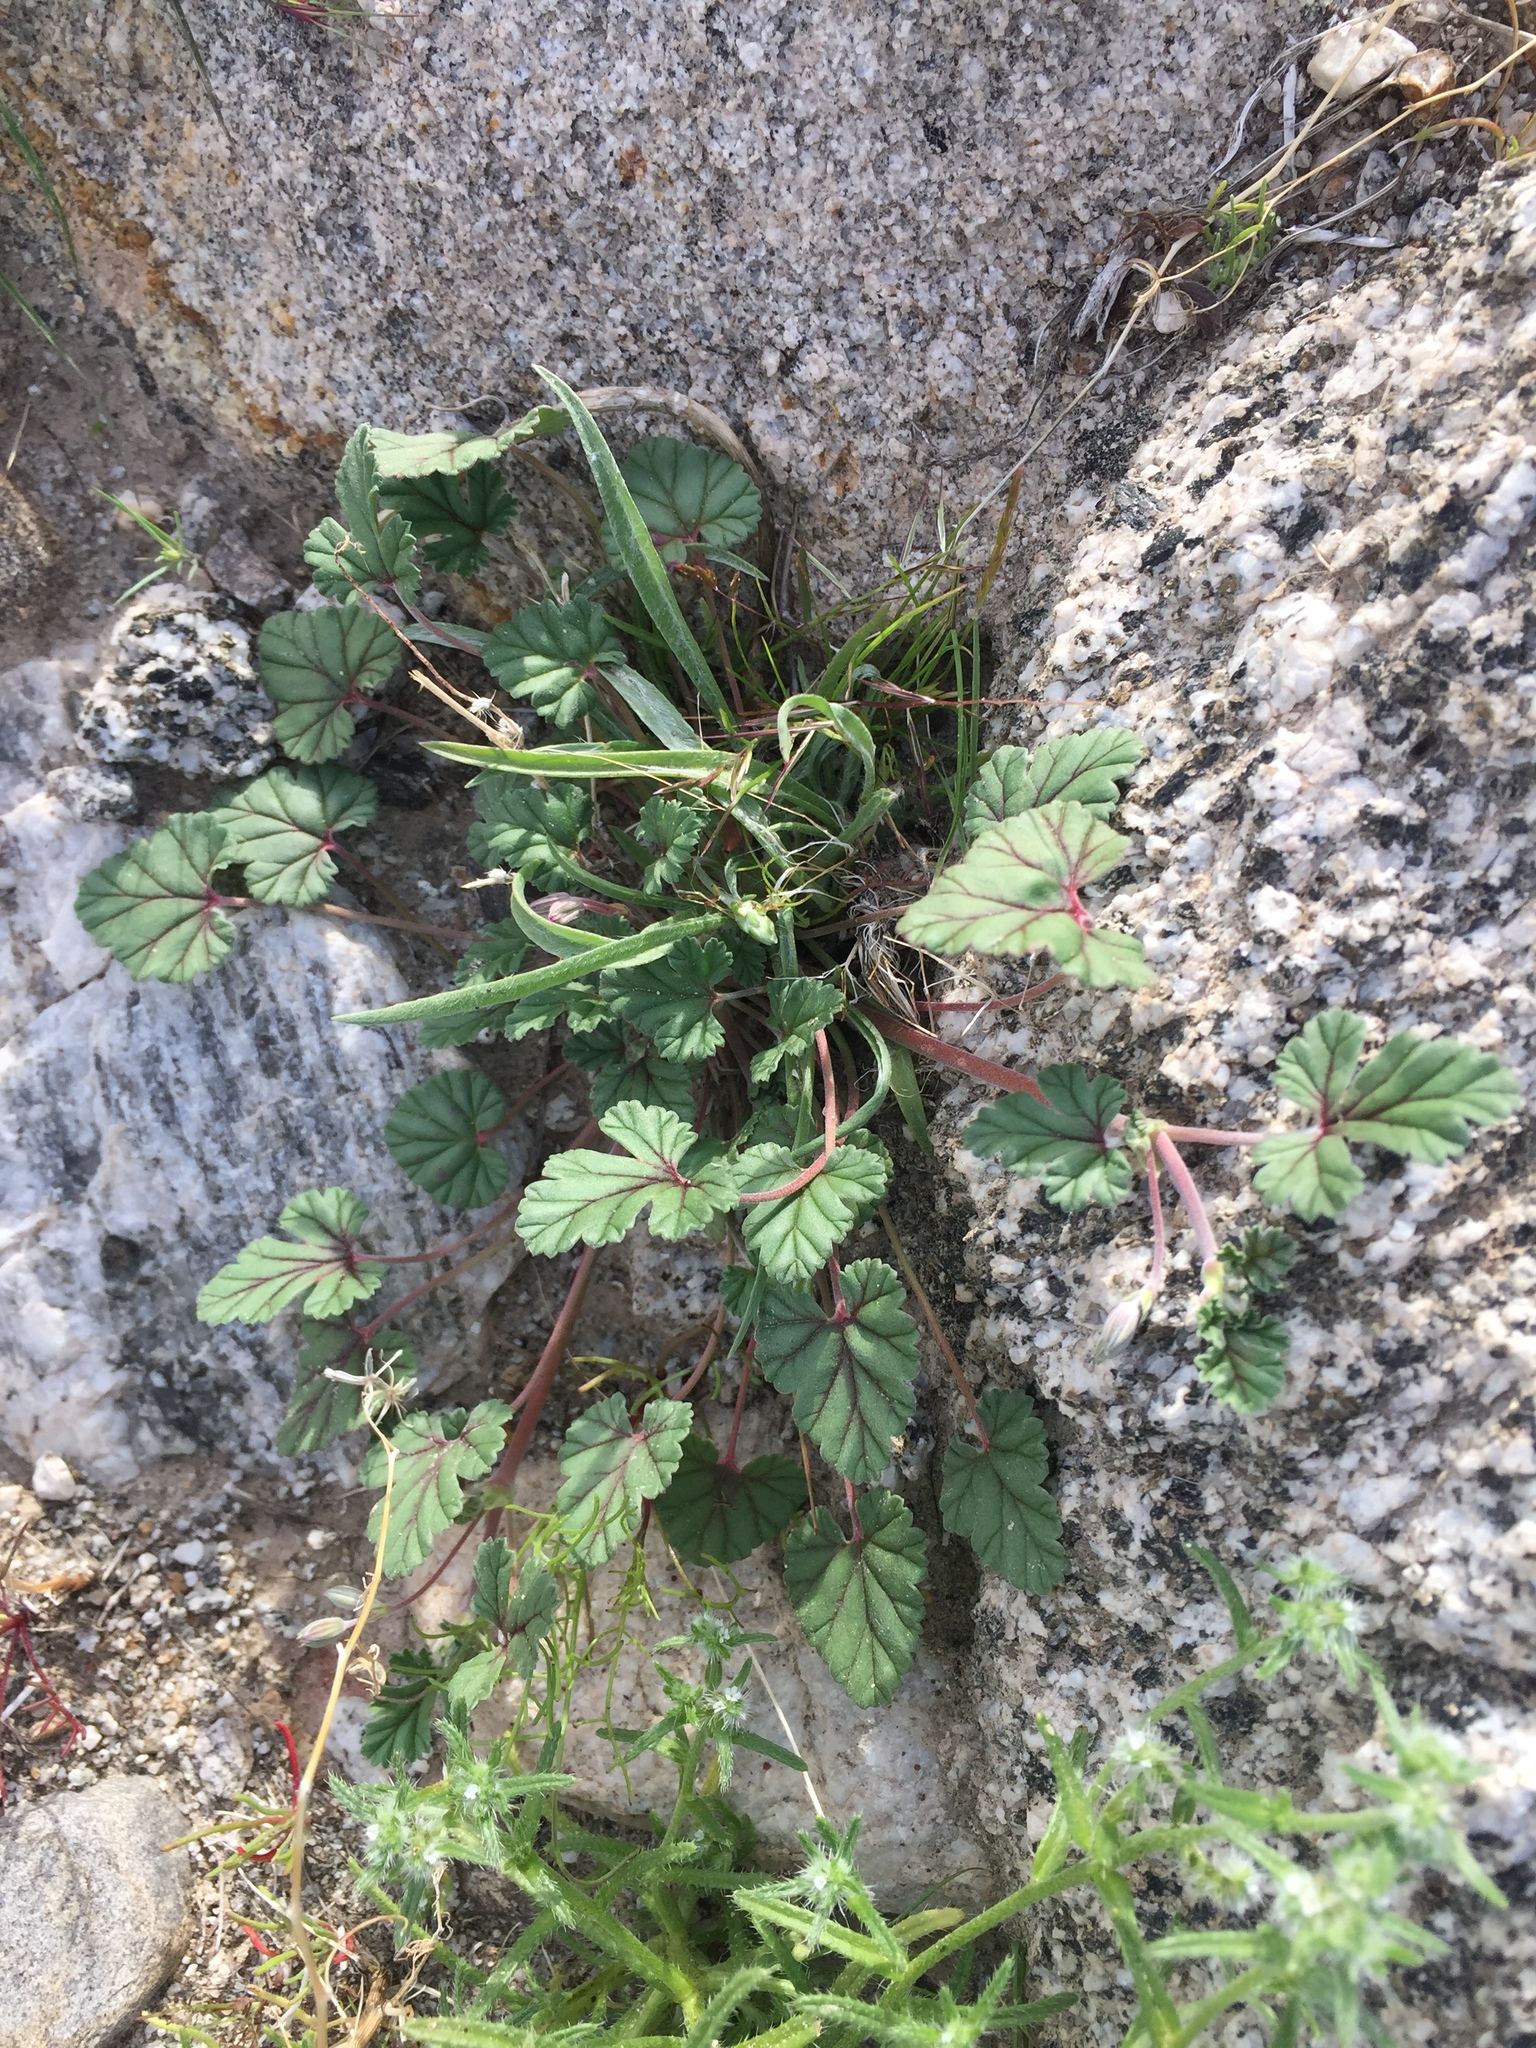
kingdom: Plantae
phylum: Tracheophyta
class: Magnoliopsida
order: Geraniales
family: Geraniaceae
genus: Erodium
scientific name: Erodium texanum
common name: Texas stork's-bill
